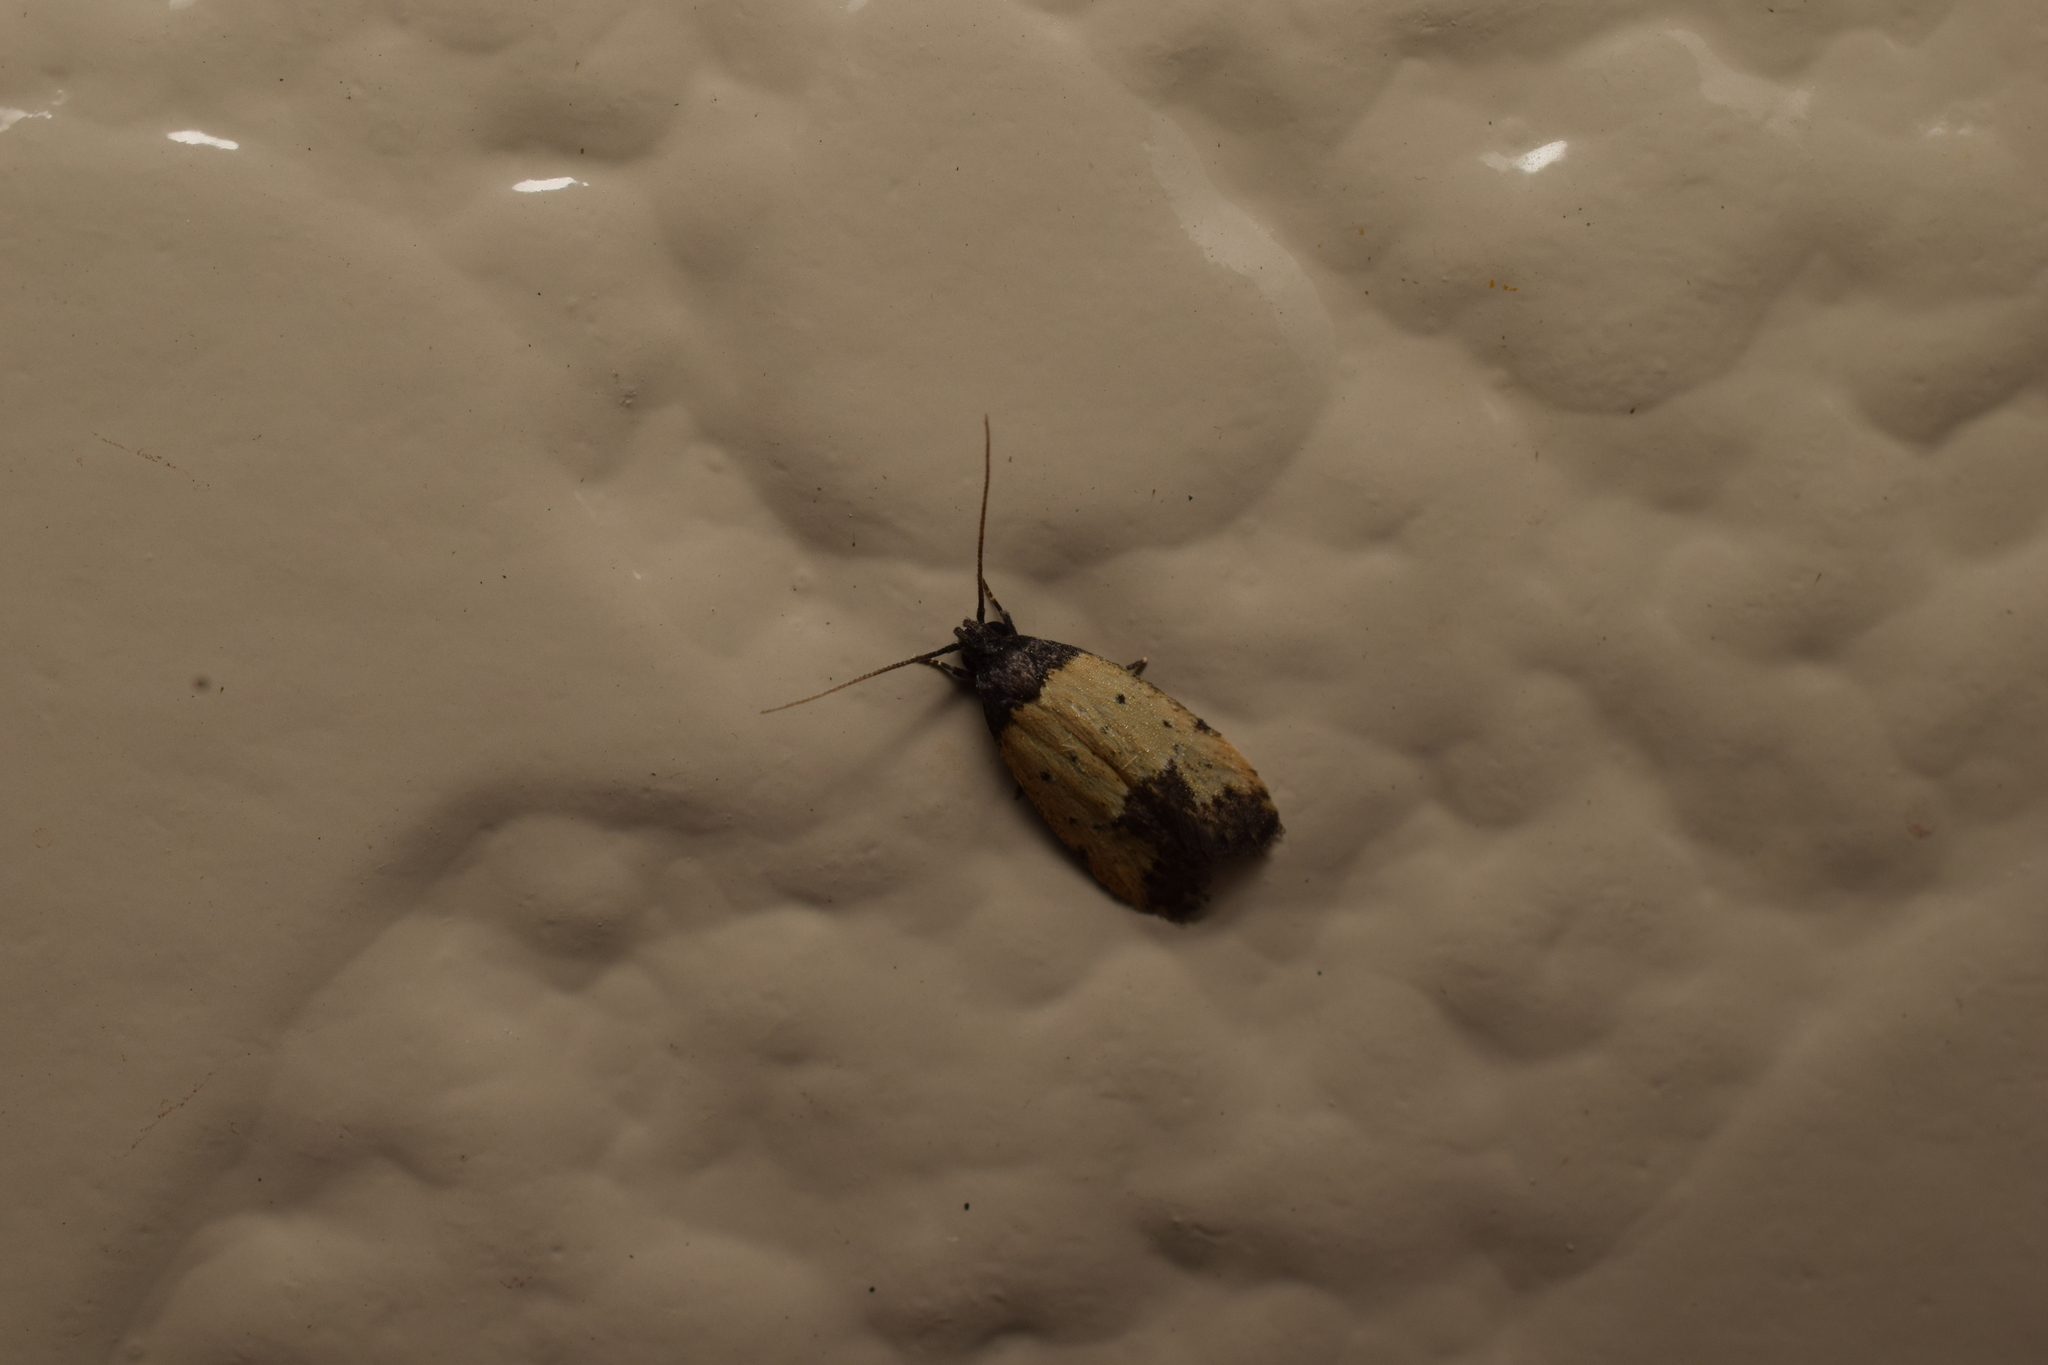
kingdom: Animalia
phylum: Arthropoda
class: Insecta
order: Lepidoptera
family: Oecophoridae
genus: Tyrolimnas
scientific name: Tyrolimnas anthraconesa
